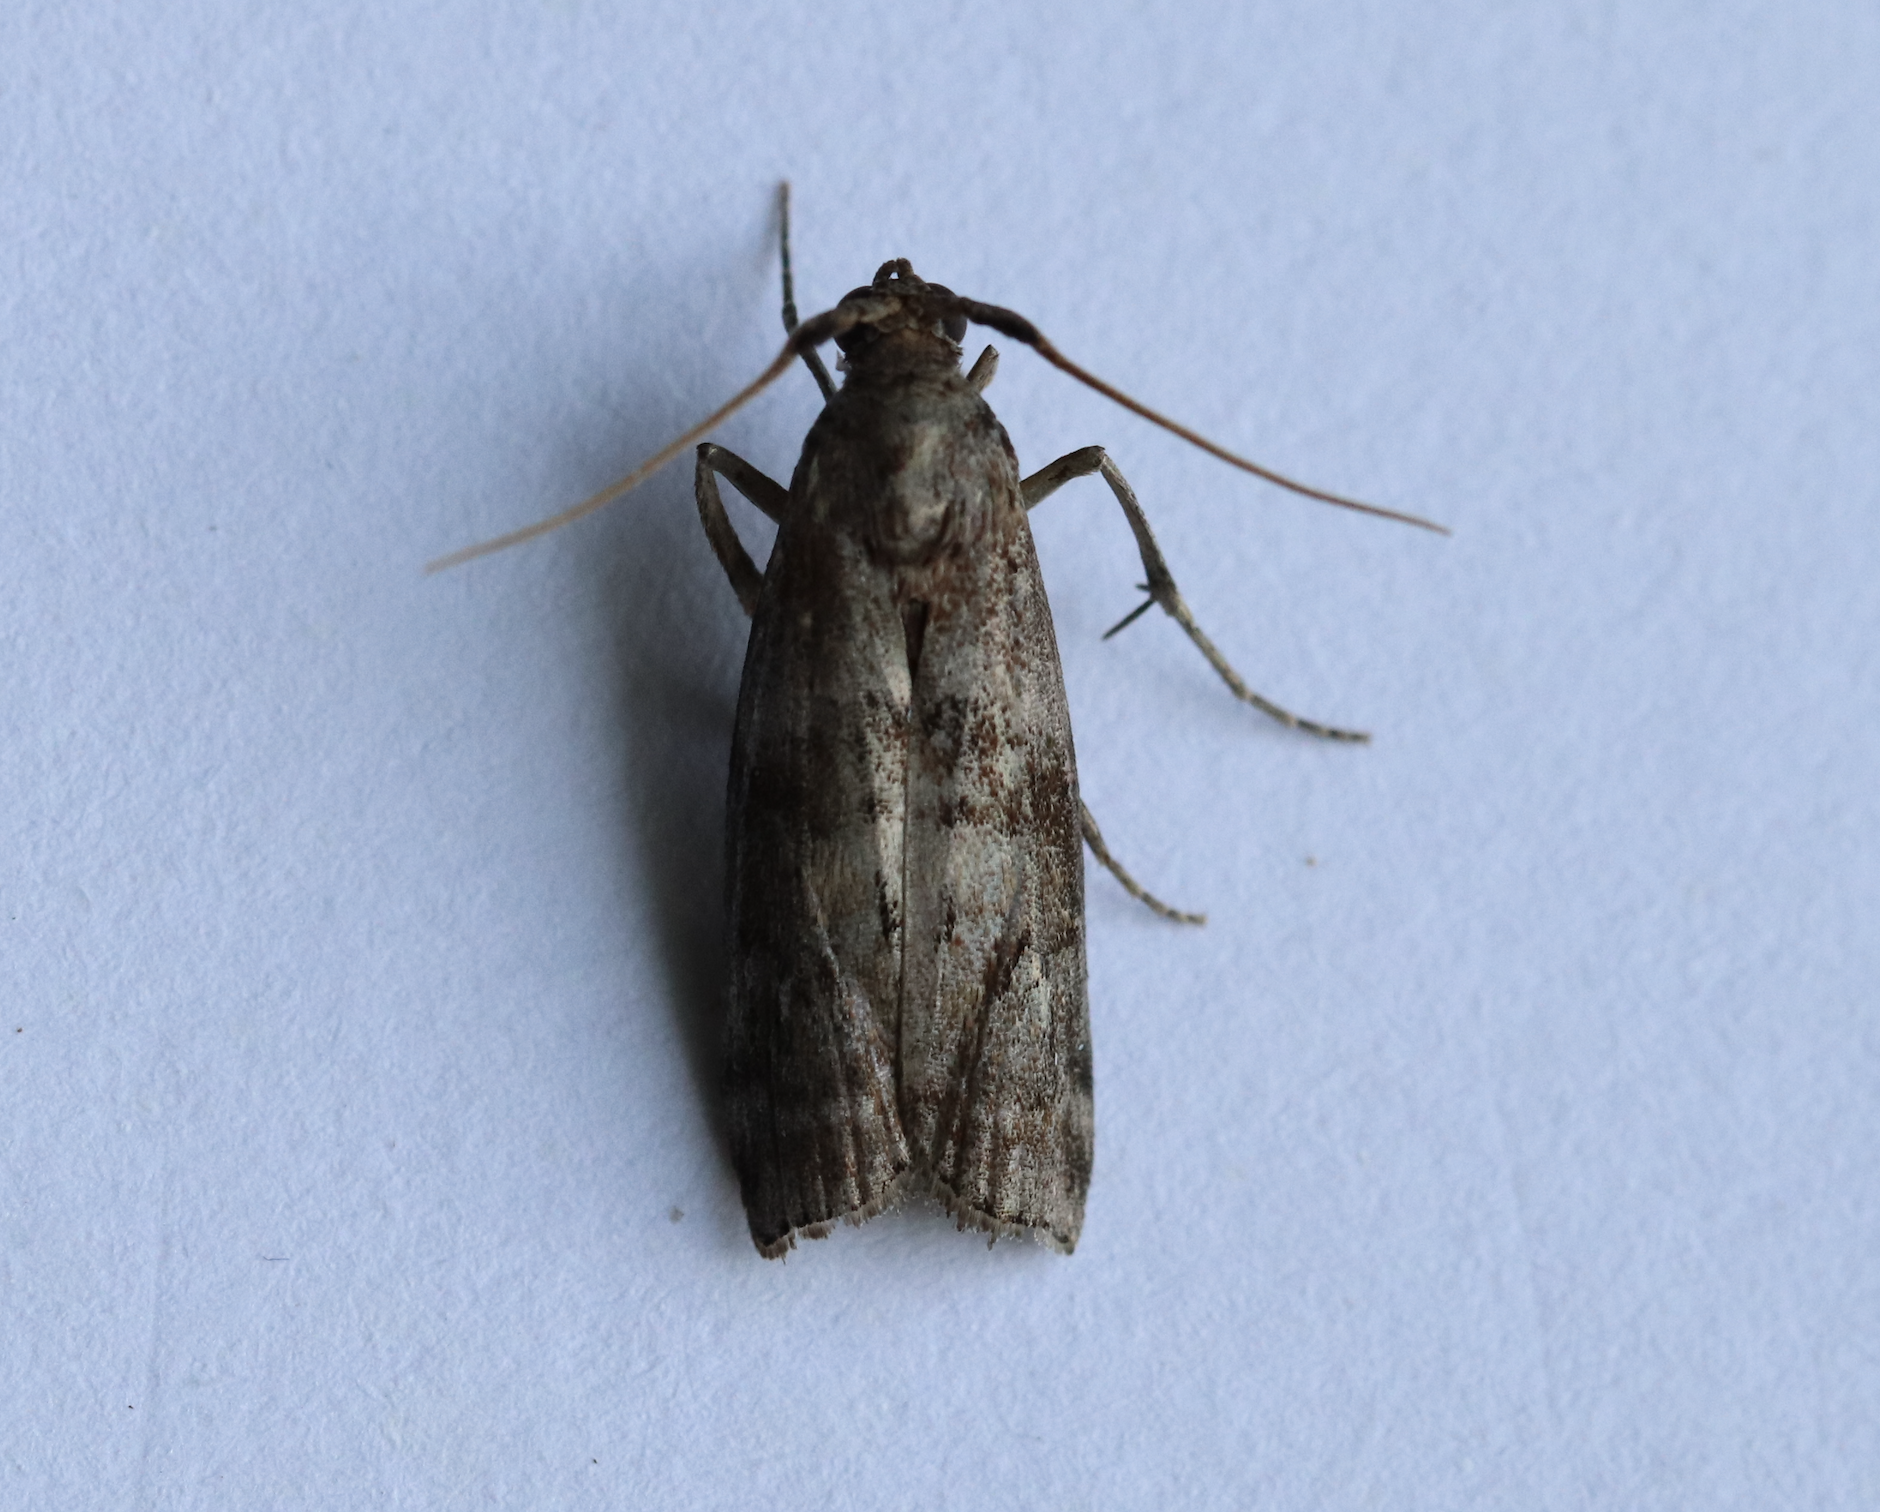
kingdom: Animalia
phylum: Arthropoda
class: Insecta
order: Lepidoptera
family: Pyralidae
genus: Phycita
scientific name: Phycita roborella
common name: Dotted oak knot-horn
